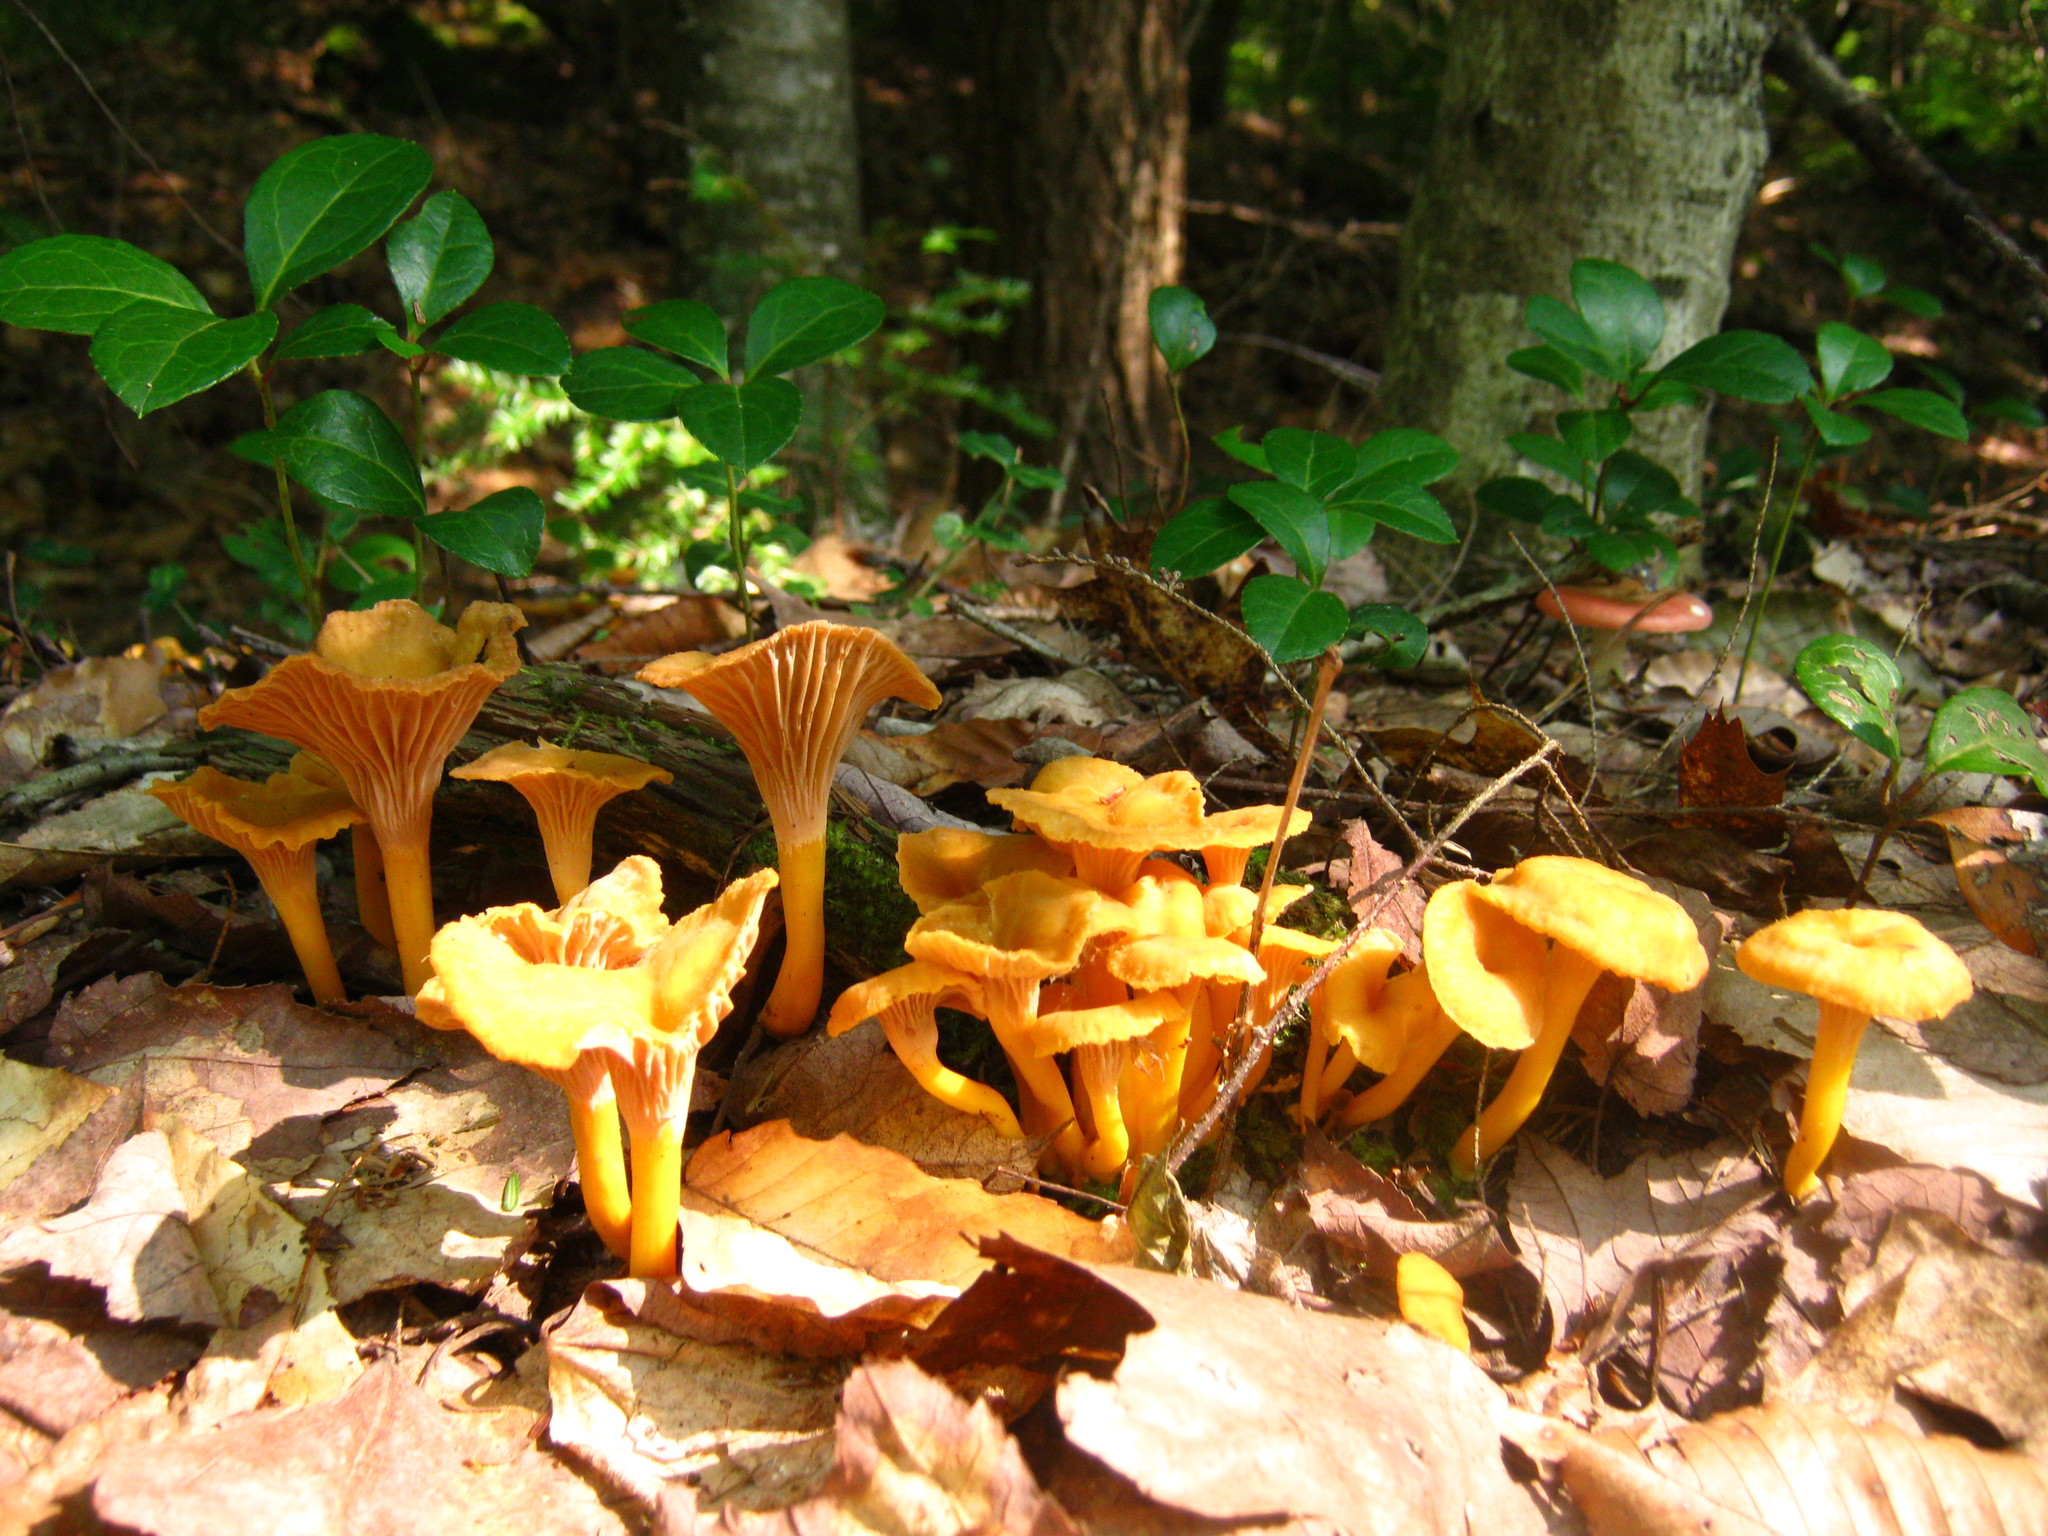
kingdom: Fungi
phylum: Basidiomycota
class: Agaricomycetes
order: Cantharellales
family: Hydnaceae
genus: Craterellus
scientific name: Craterellus ignicolor
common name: Flame chanterelle
